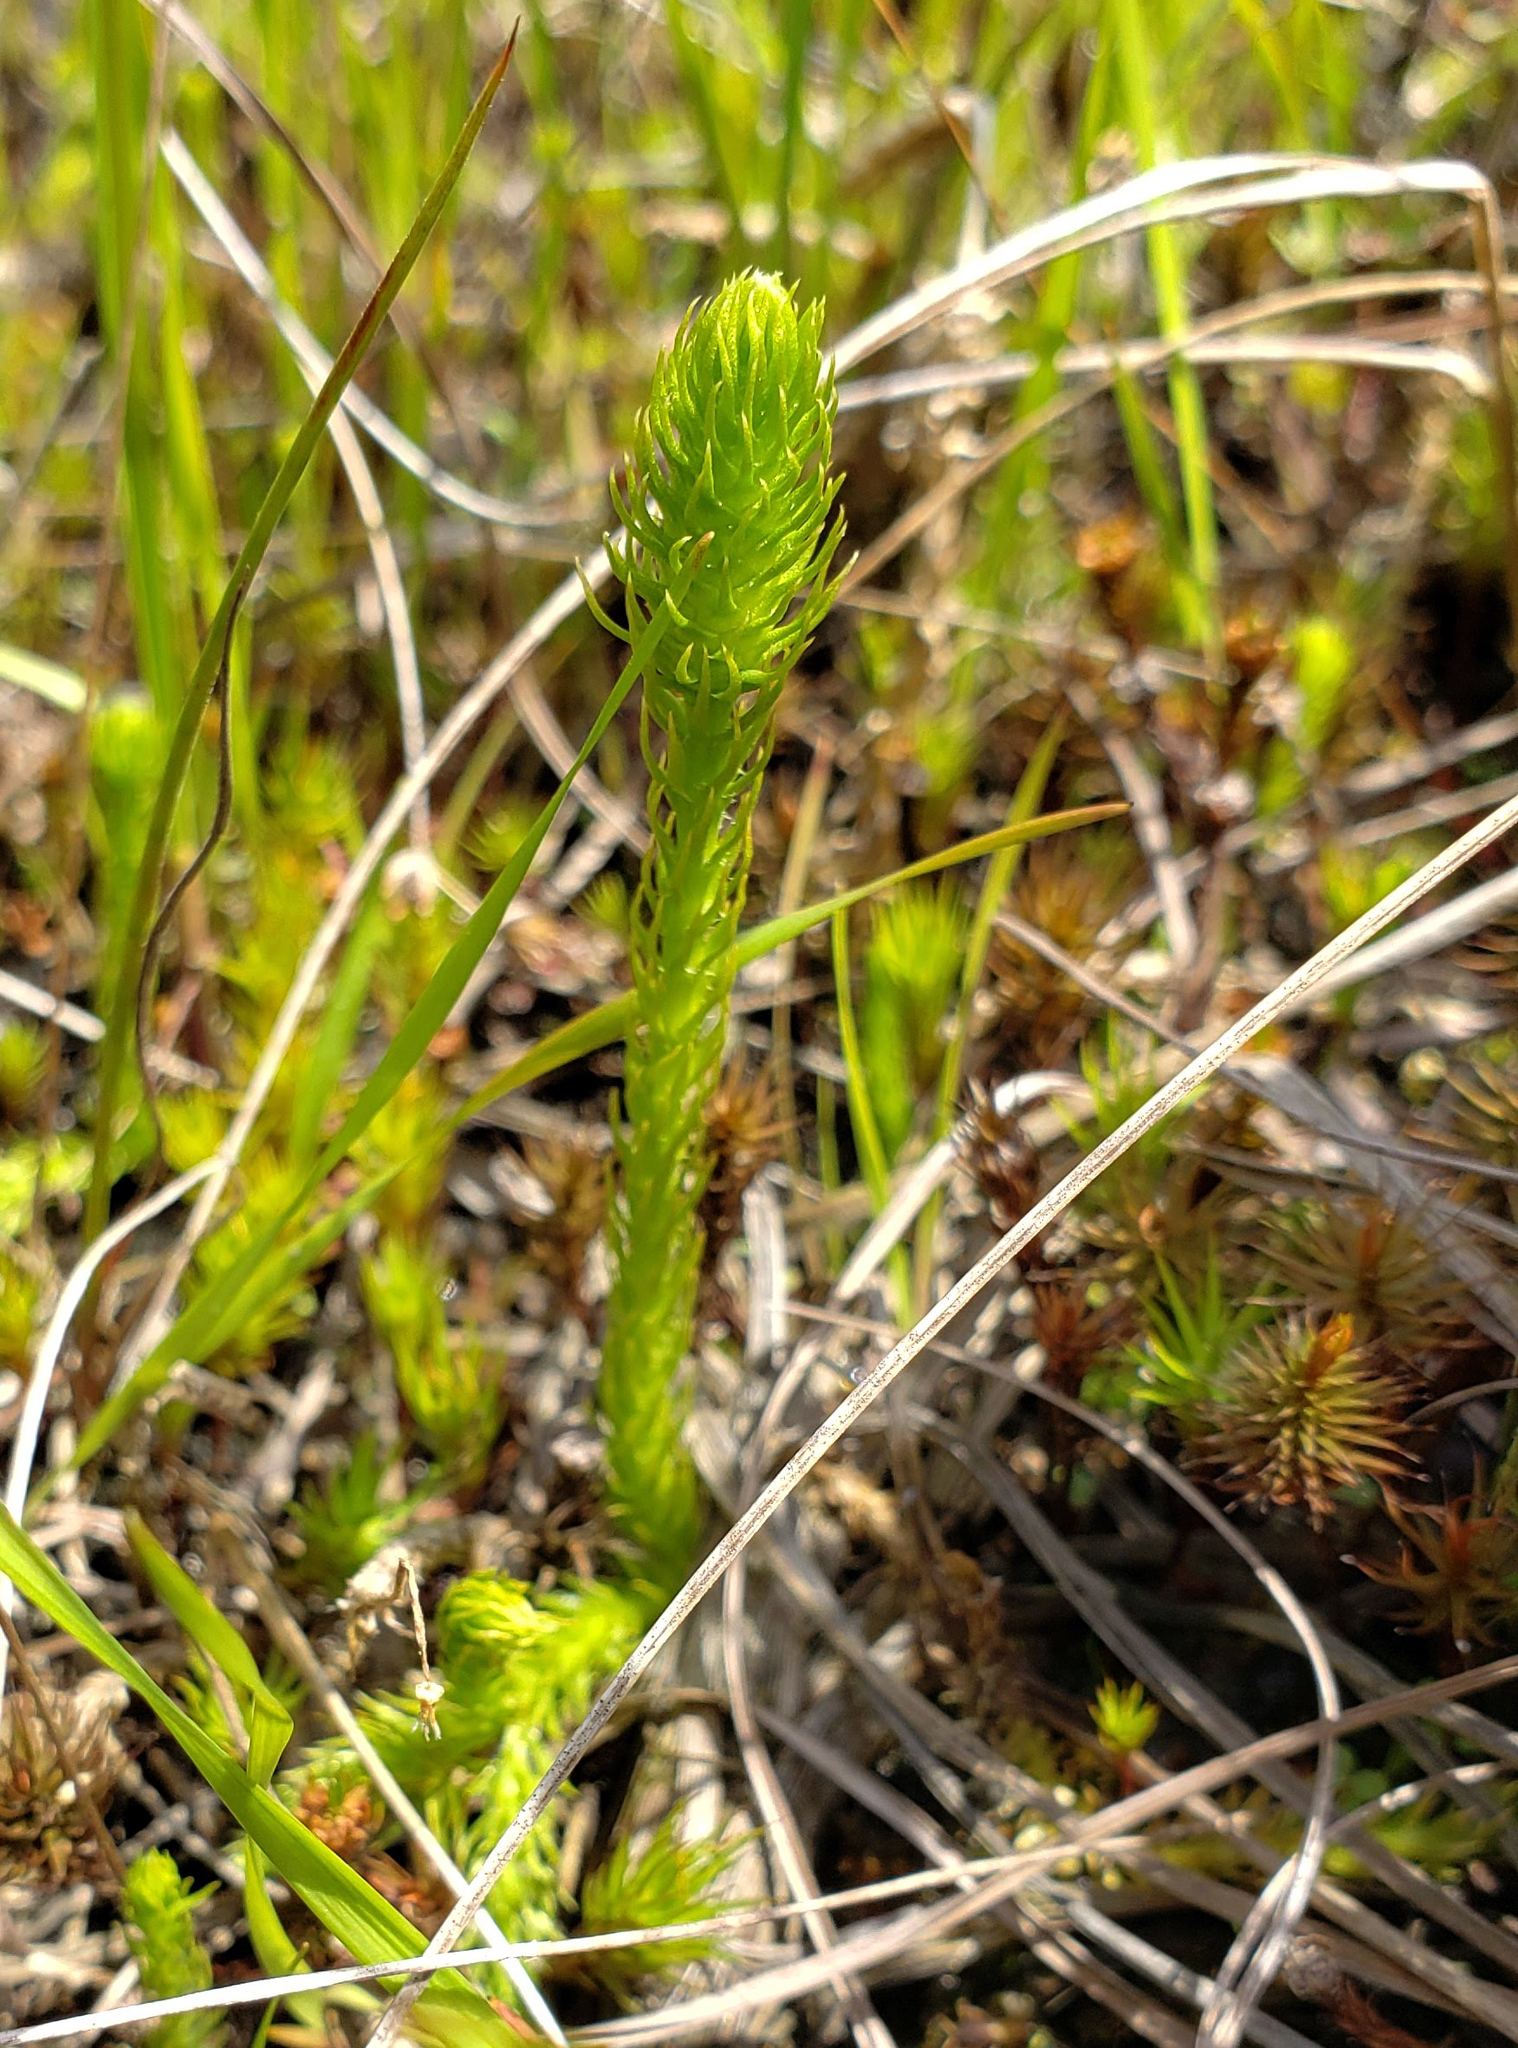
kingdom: Plantae
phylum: Tracheophyta
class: Lycopodiopsida
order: Lycopodiales
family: Lycopodiaceae
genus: Lycopodiella
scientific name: Lycopodiella inundata
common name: Marsh clubmoss
